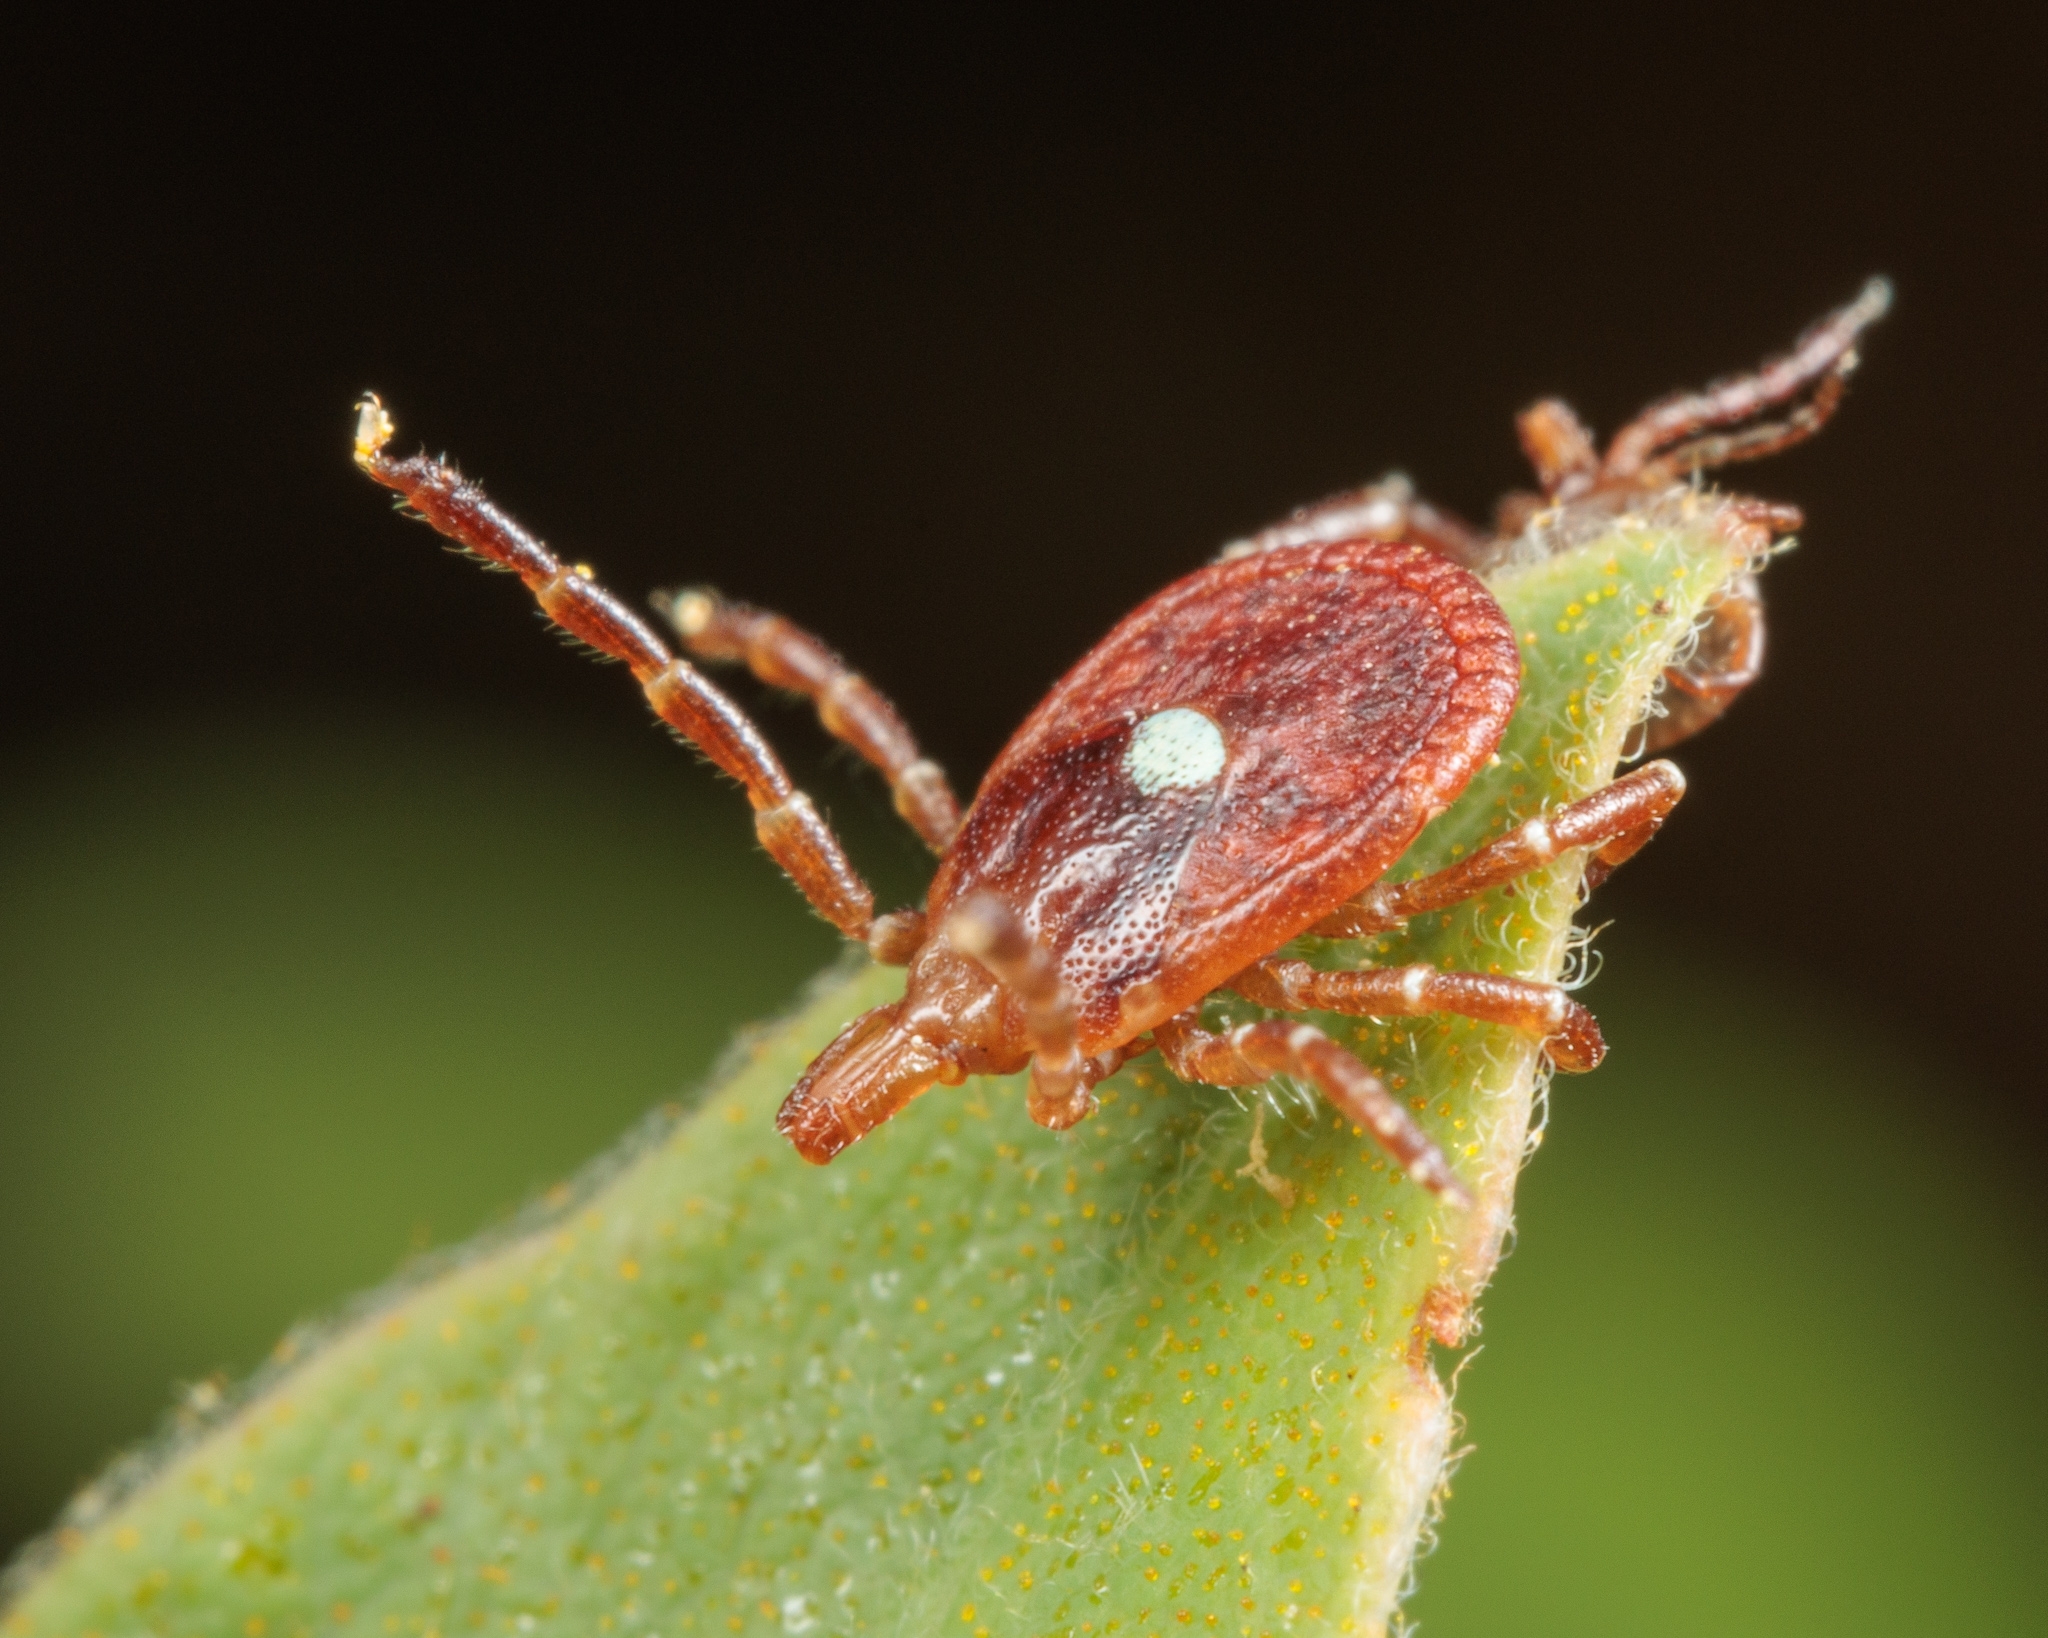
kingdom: Animalia
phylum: Arthropoda
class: Arachnida
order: Ixodida
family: Ixodidae
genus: Amblyomma
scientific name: Amblyomma americanum
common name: Lone star tick
